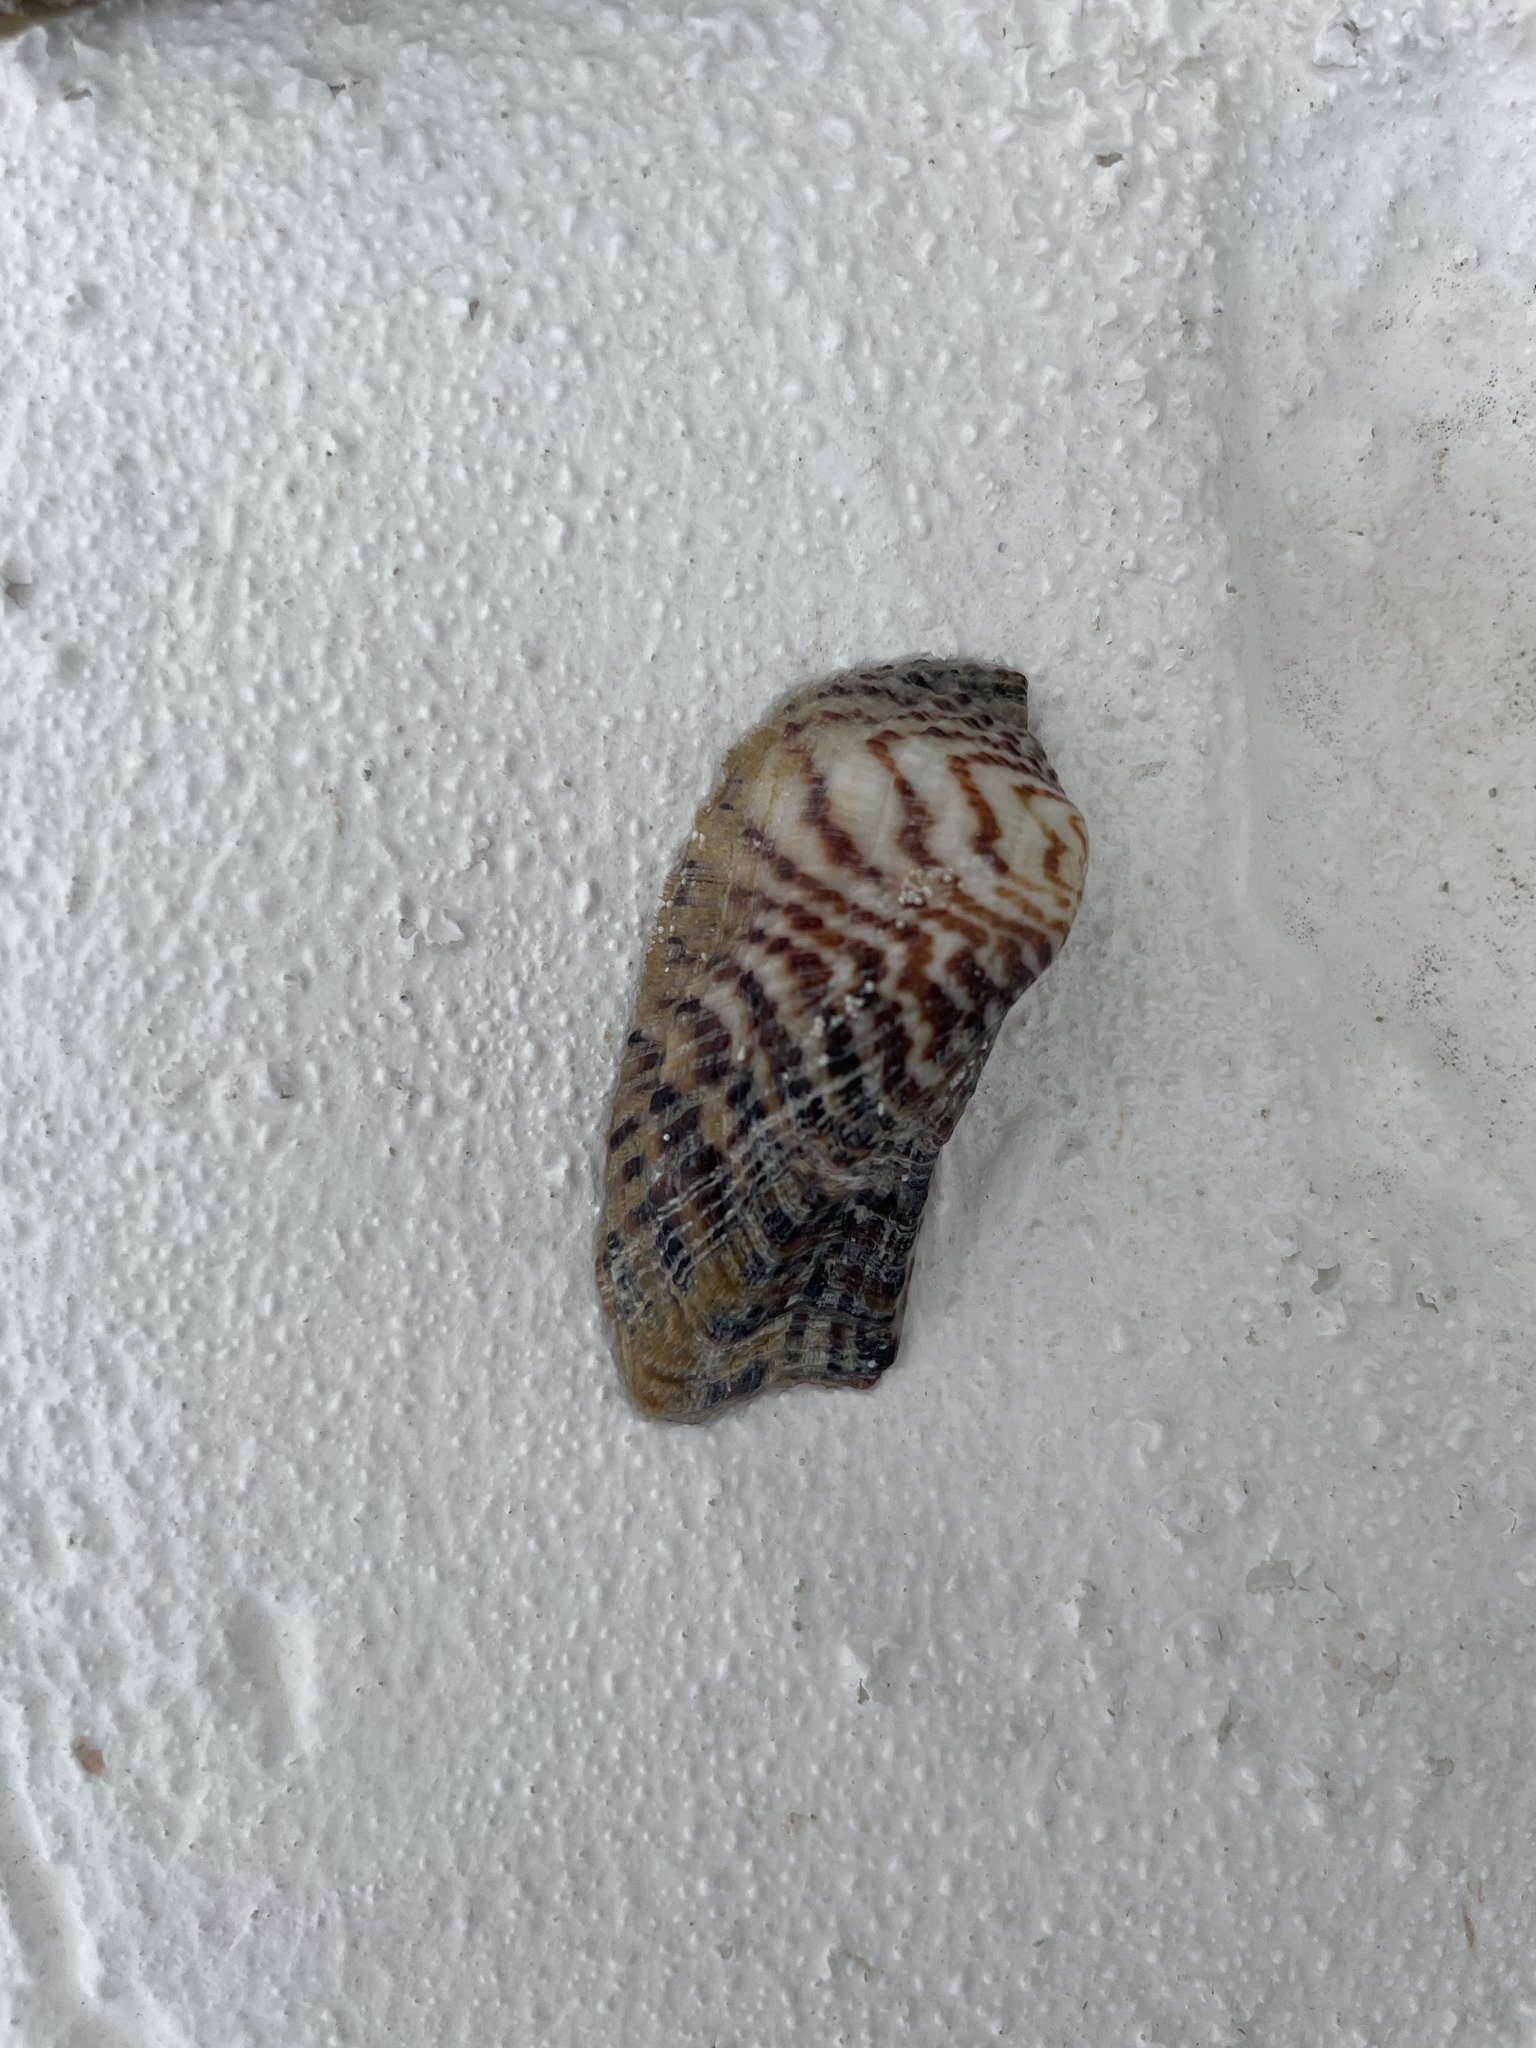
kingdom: Animalia
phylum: Mollusca
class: Bivalvia
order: Arcida
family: Arcidae
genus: Arca
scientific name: Arca zebra
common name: Atlantic turkey wing
